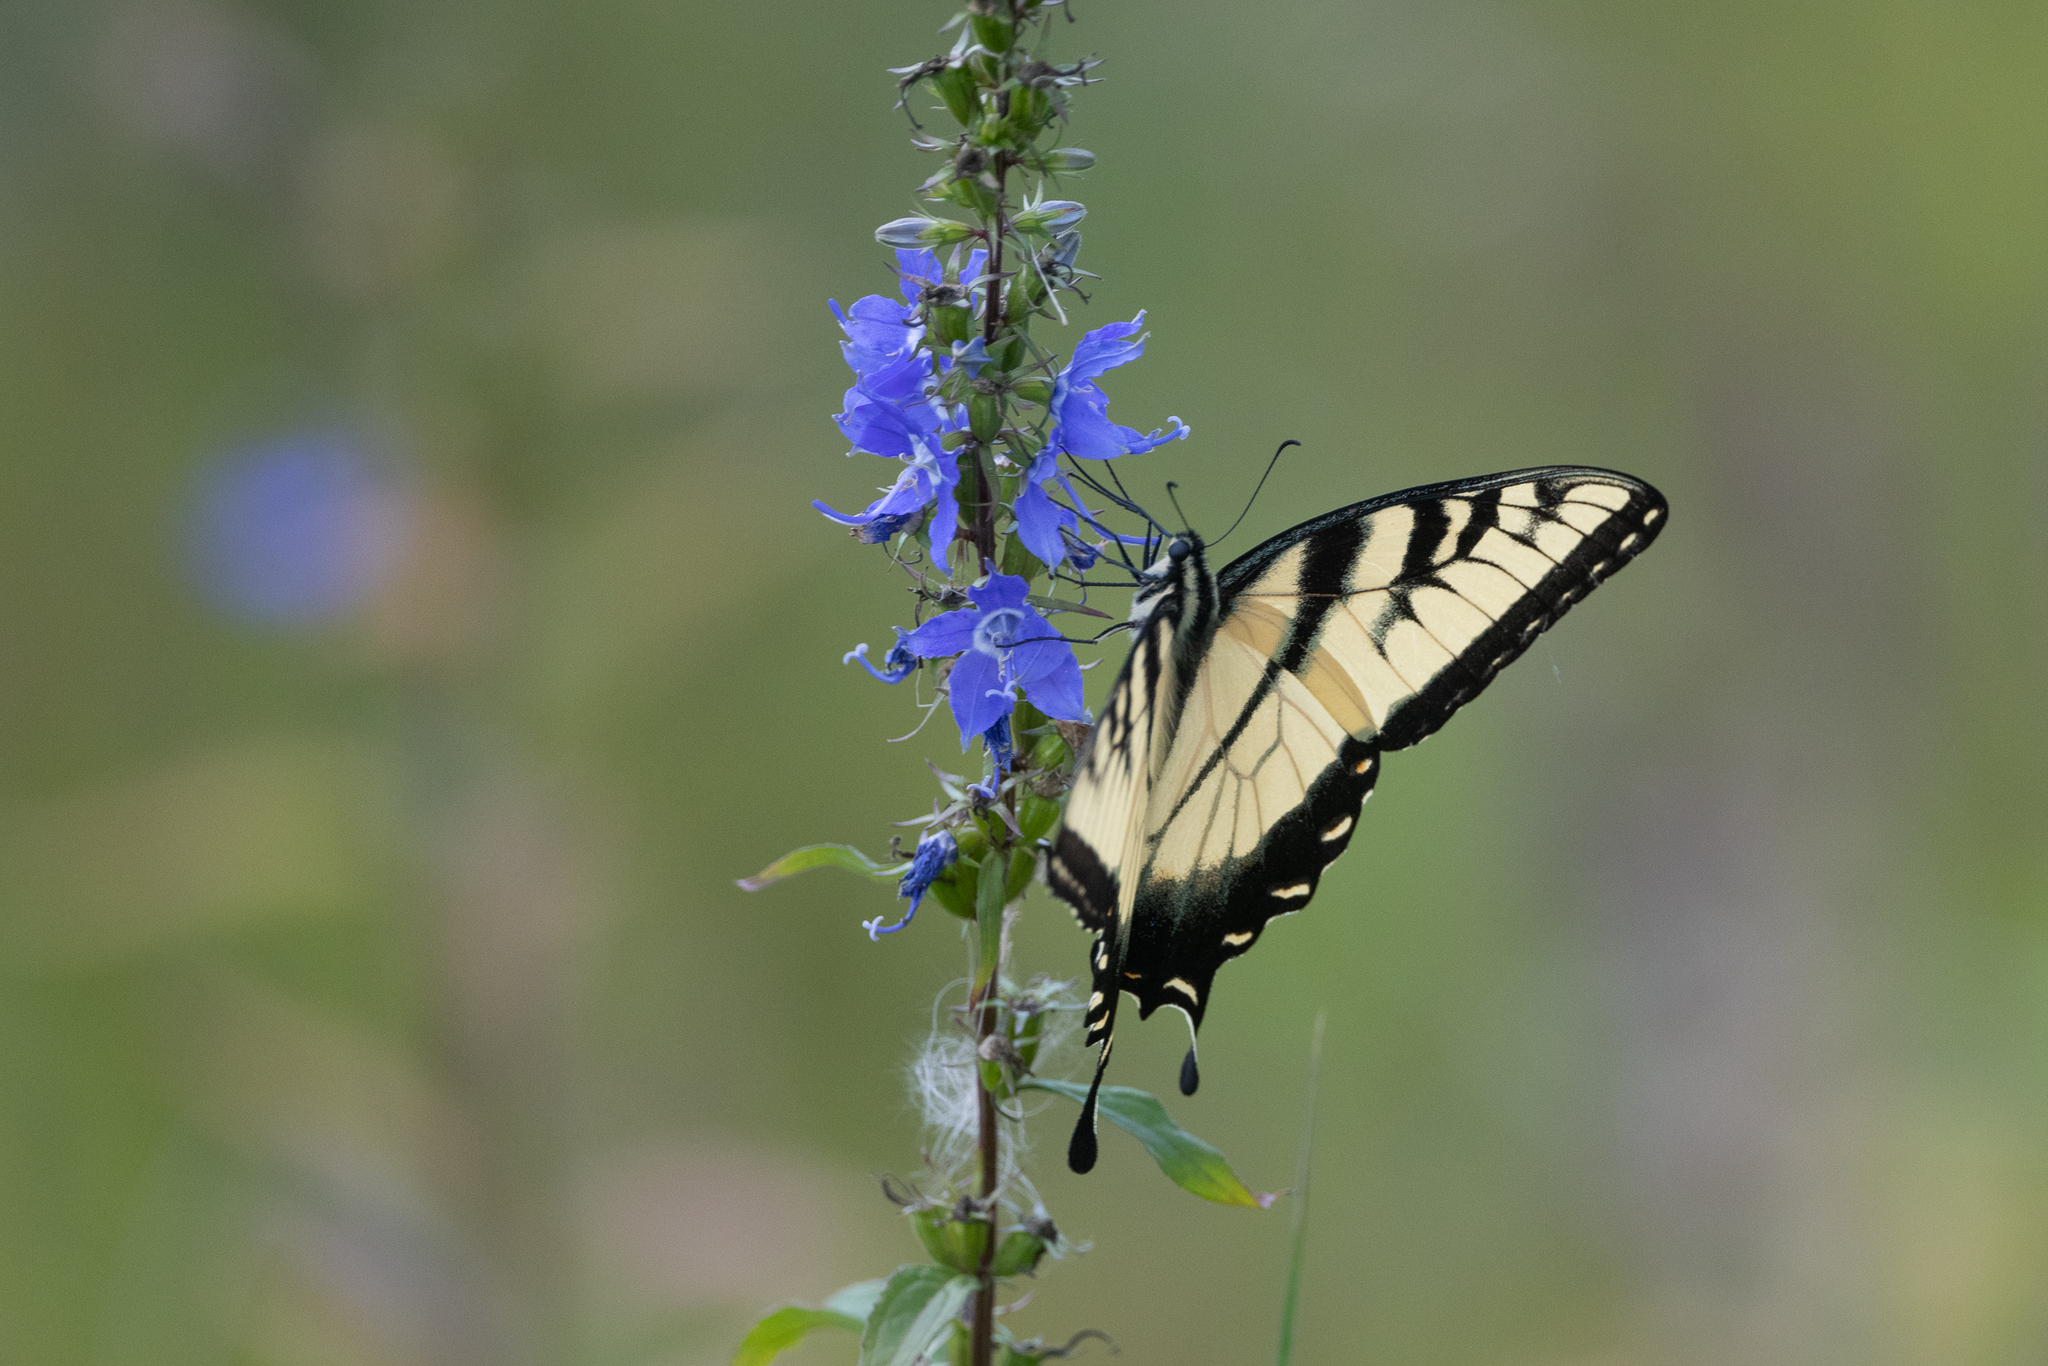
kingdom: Animalia
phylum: Arthropoda
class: Insecta
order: Lepidoptera
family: Papilionidae
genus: Papilio
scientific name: Papilio glaucus
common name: Tiger swallowtail
